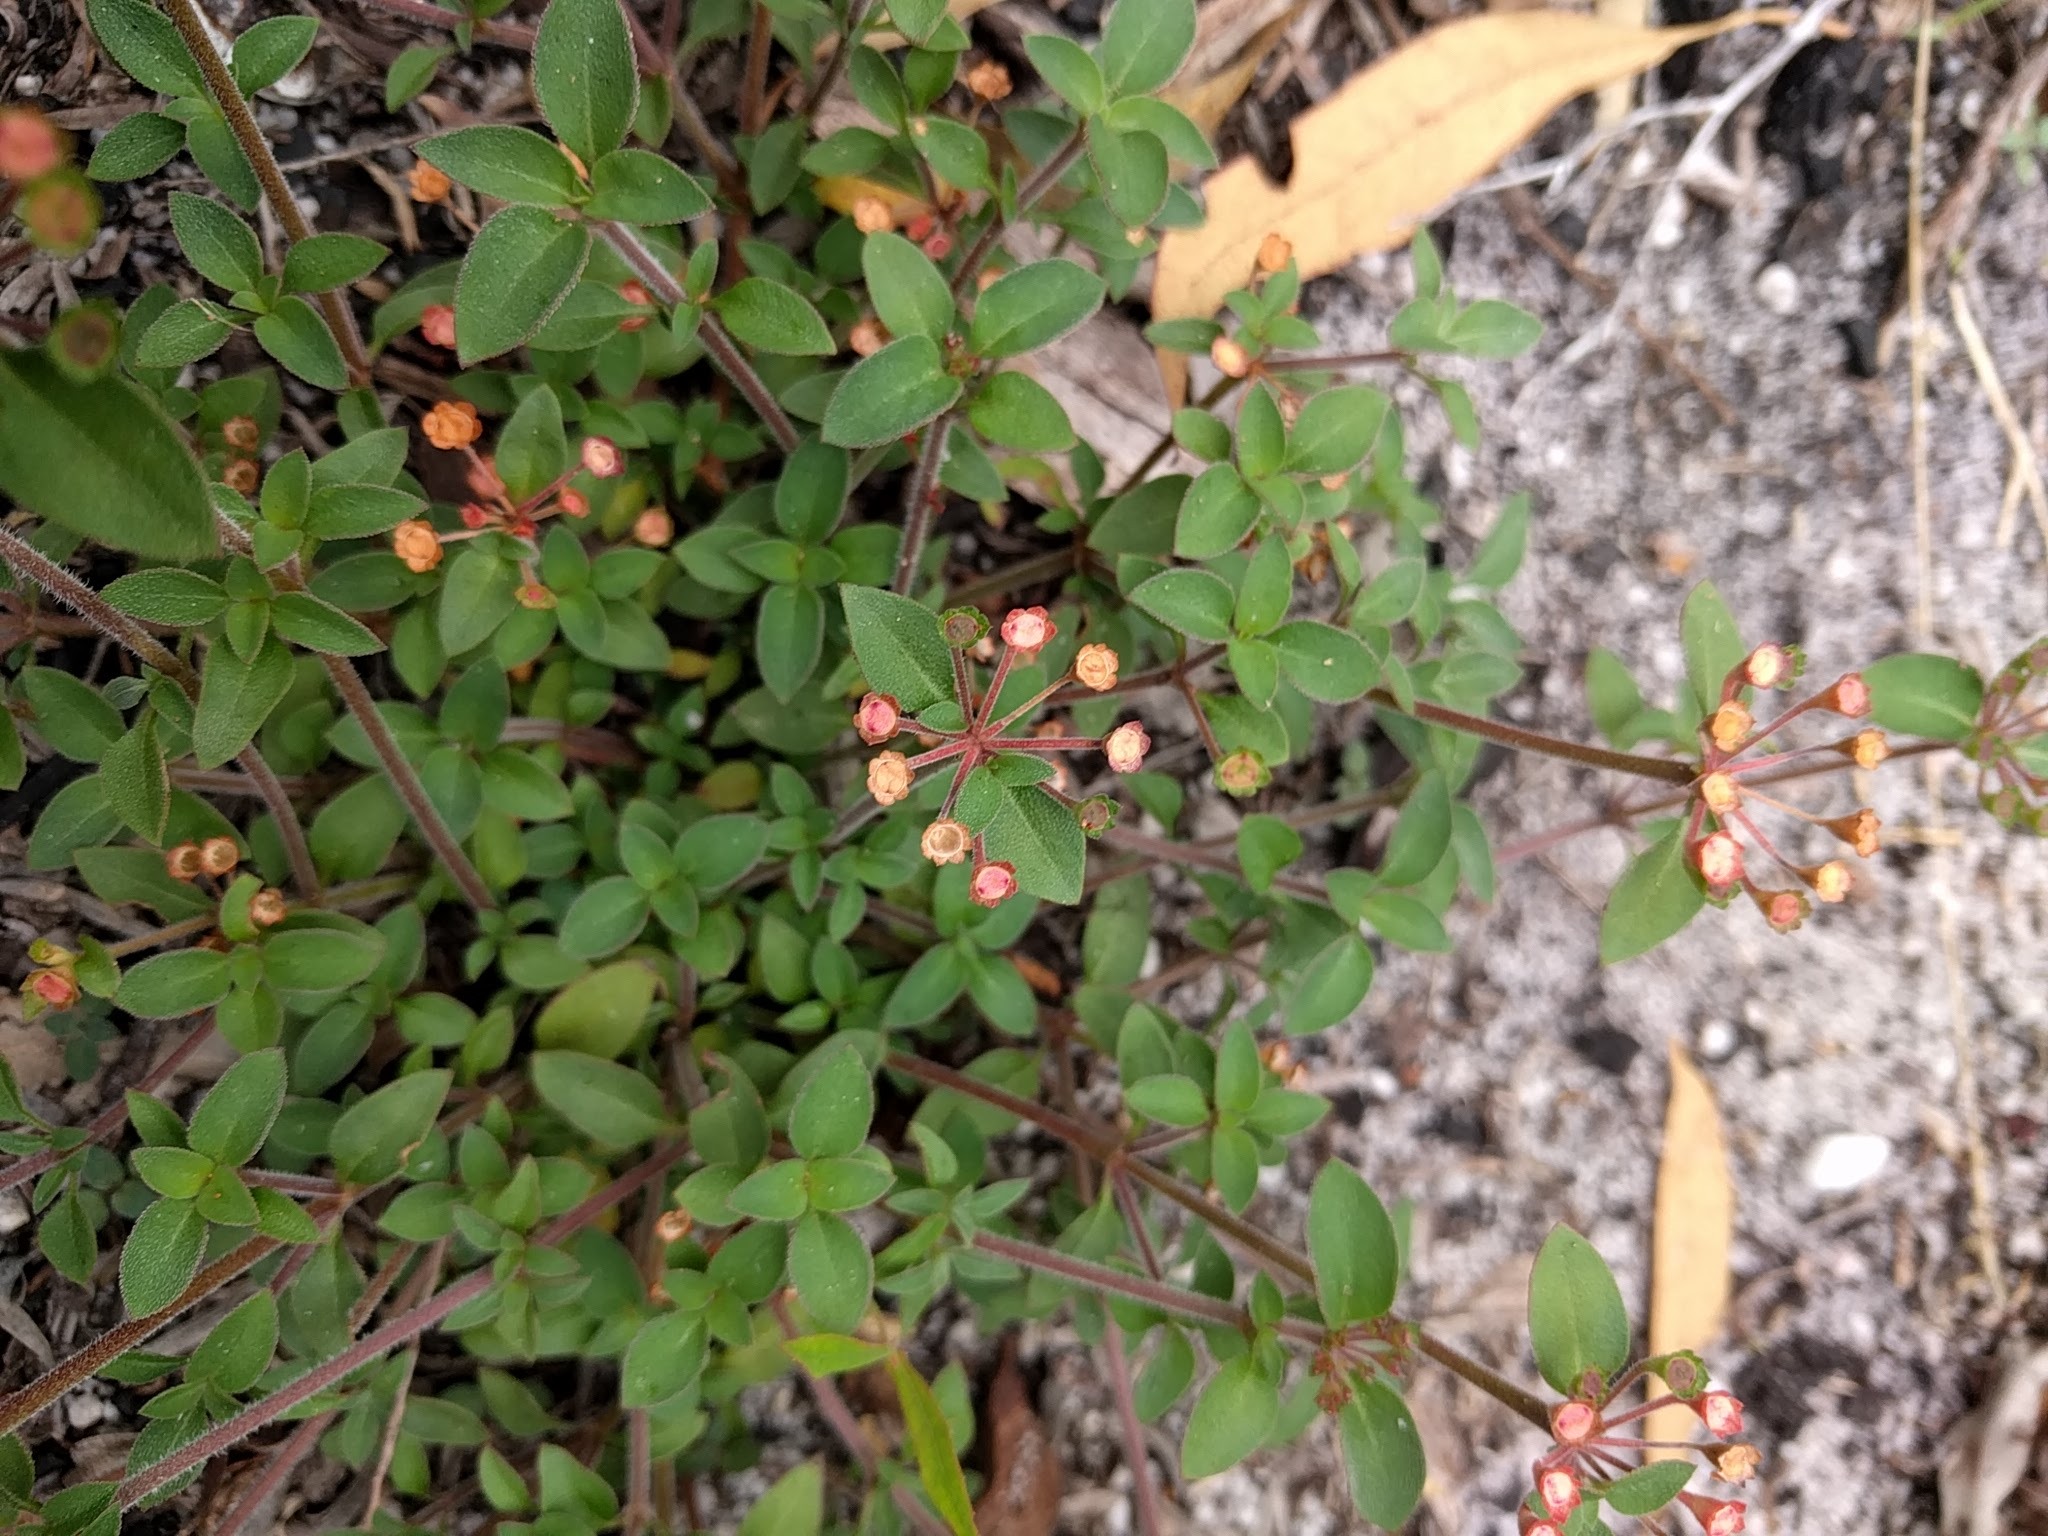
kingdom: Plantae
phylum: Tracheophyta
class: Magnoliopsida
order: Gentianales
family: Rubiaceae
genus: Pomax
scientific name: Pomax umbellata
